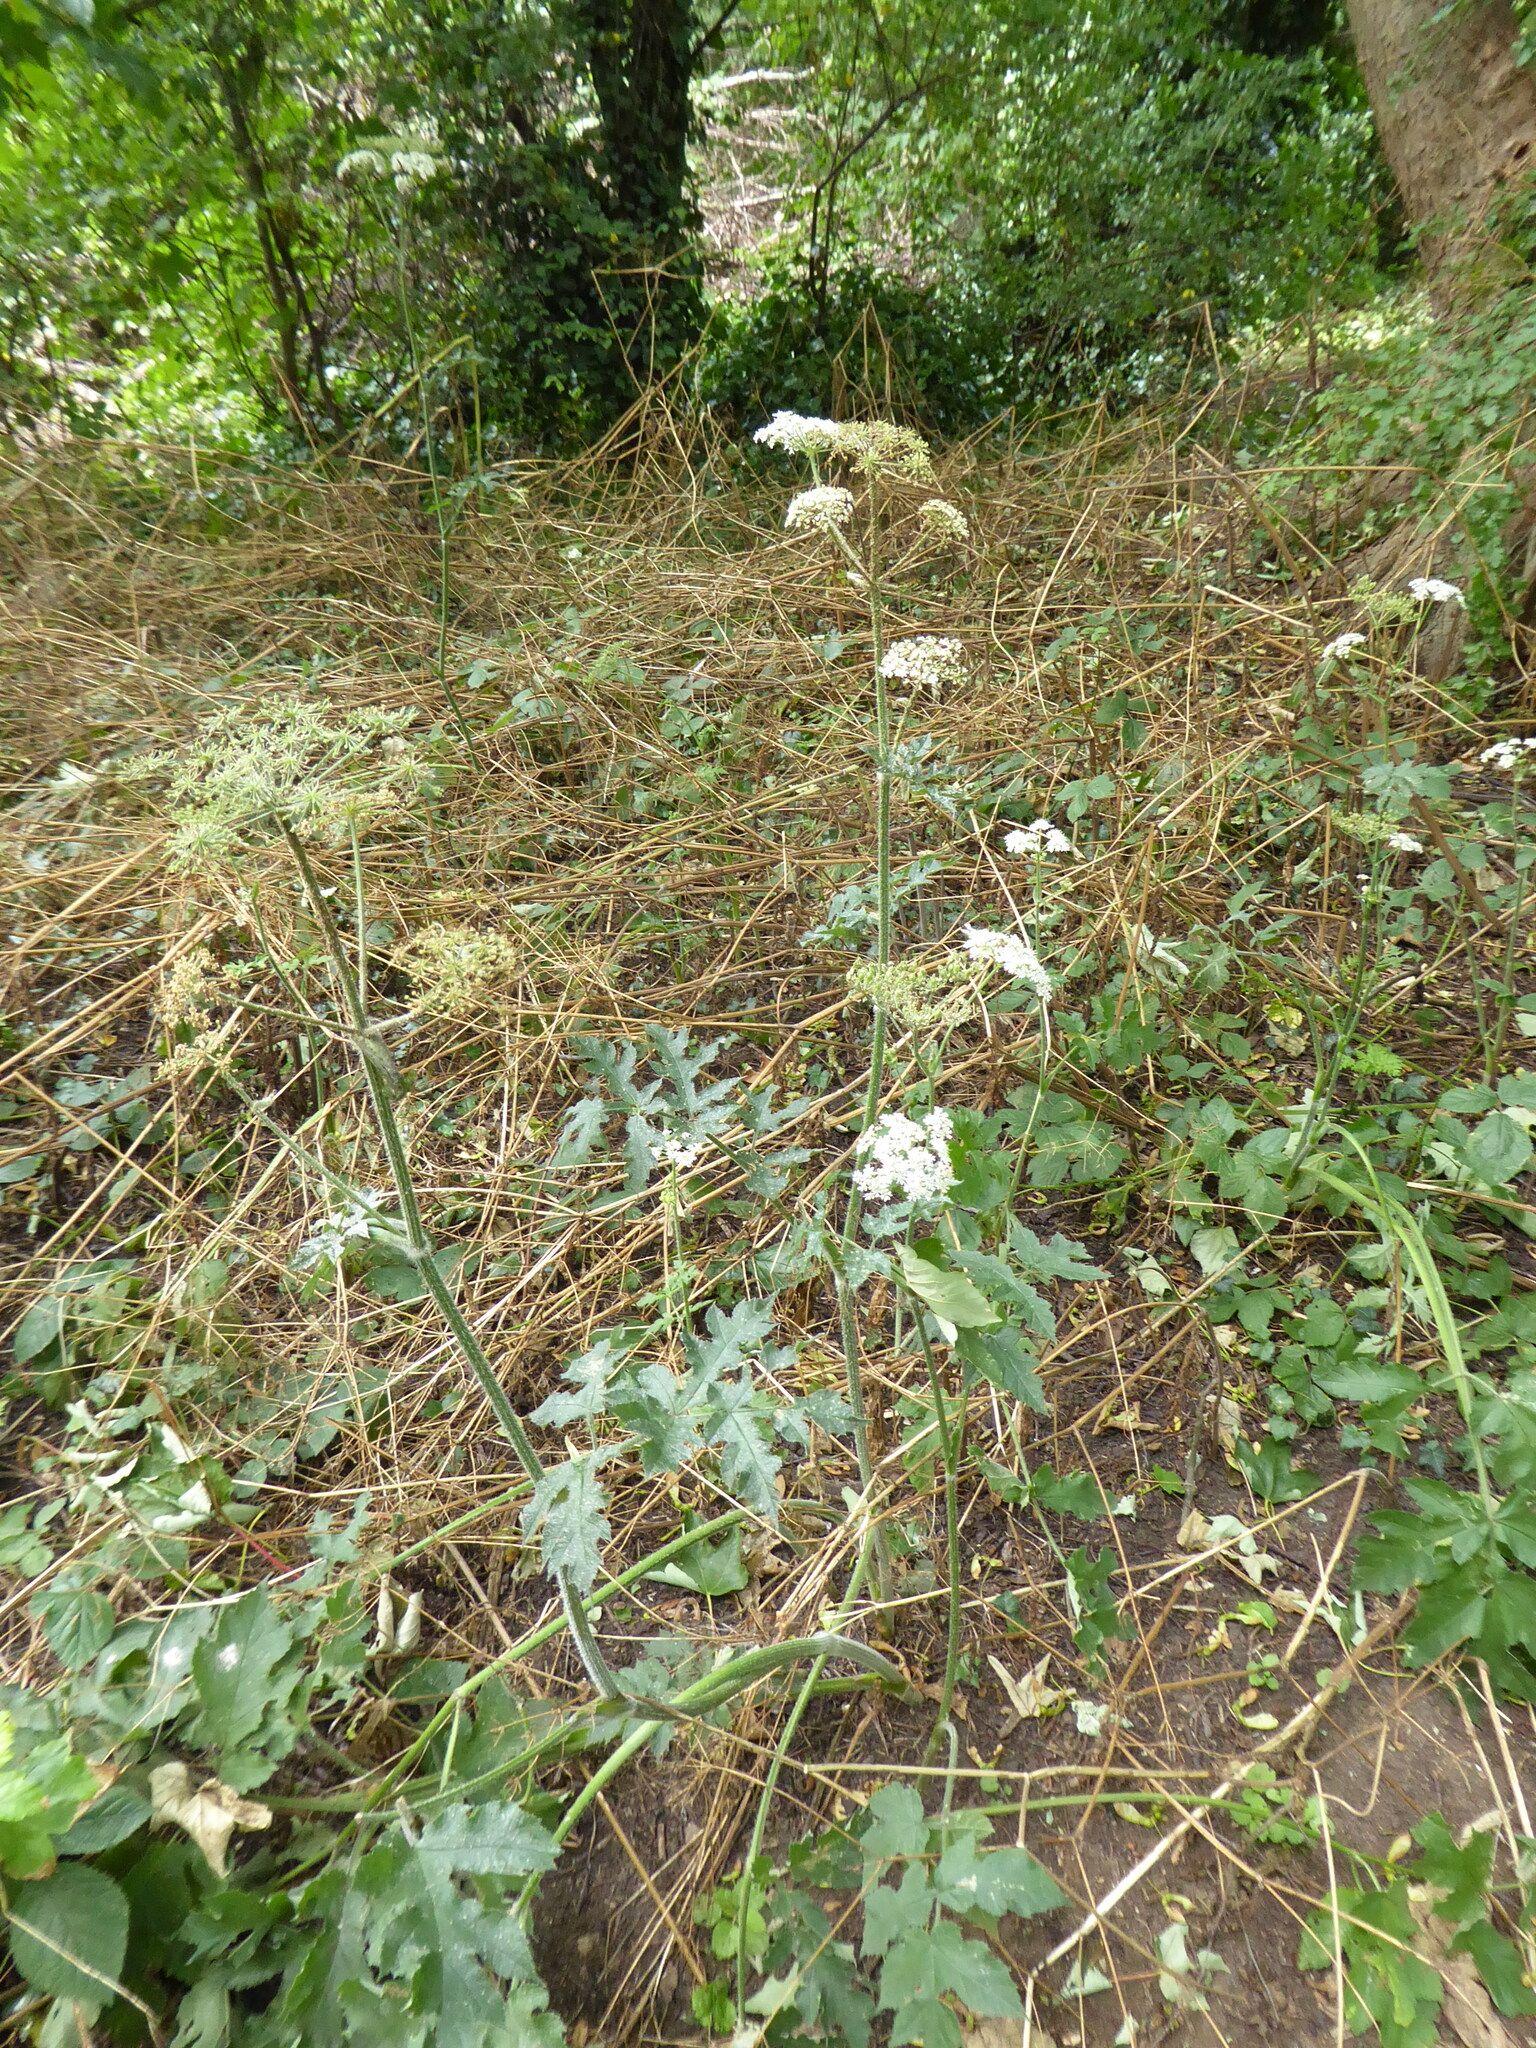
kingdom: Plantae
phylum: Tracheophyta
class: Magnoliopsida
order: Apiales
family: Apiaceae
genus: Heracleum
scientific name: Heracleum sphondylium
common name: Hogweed
